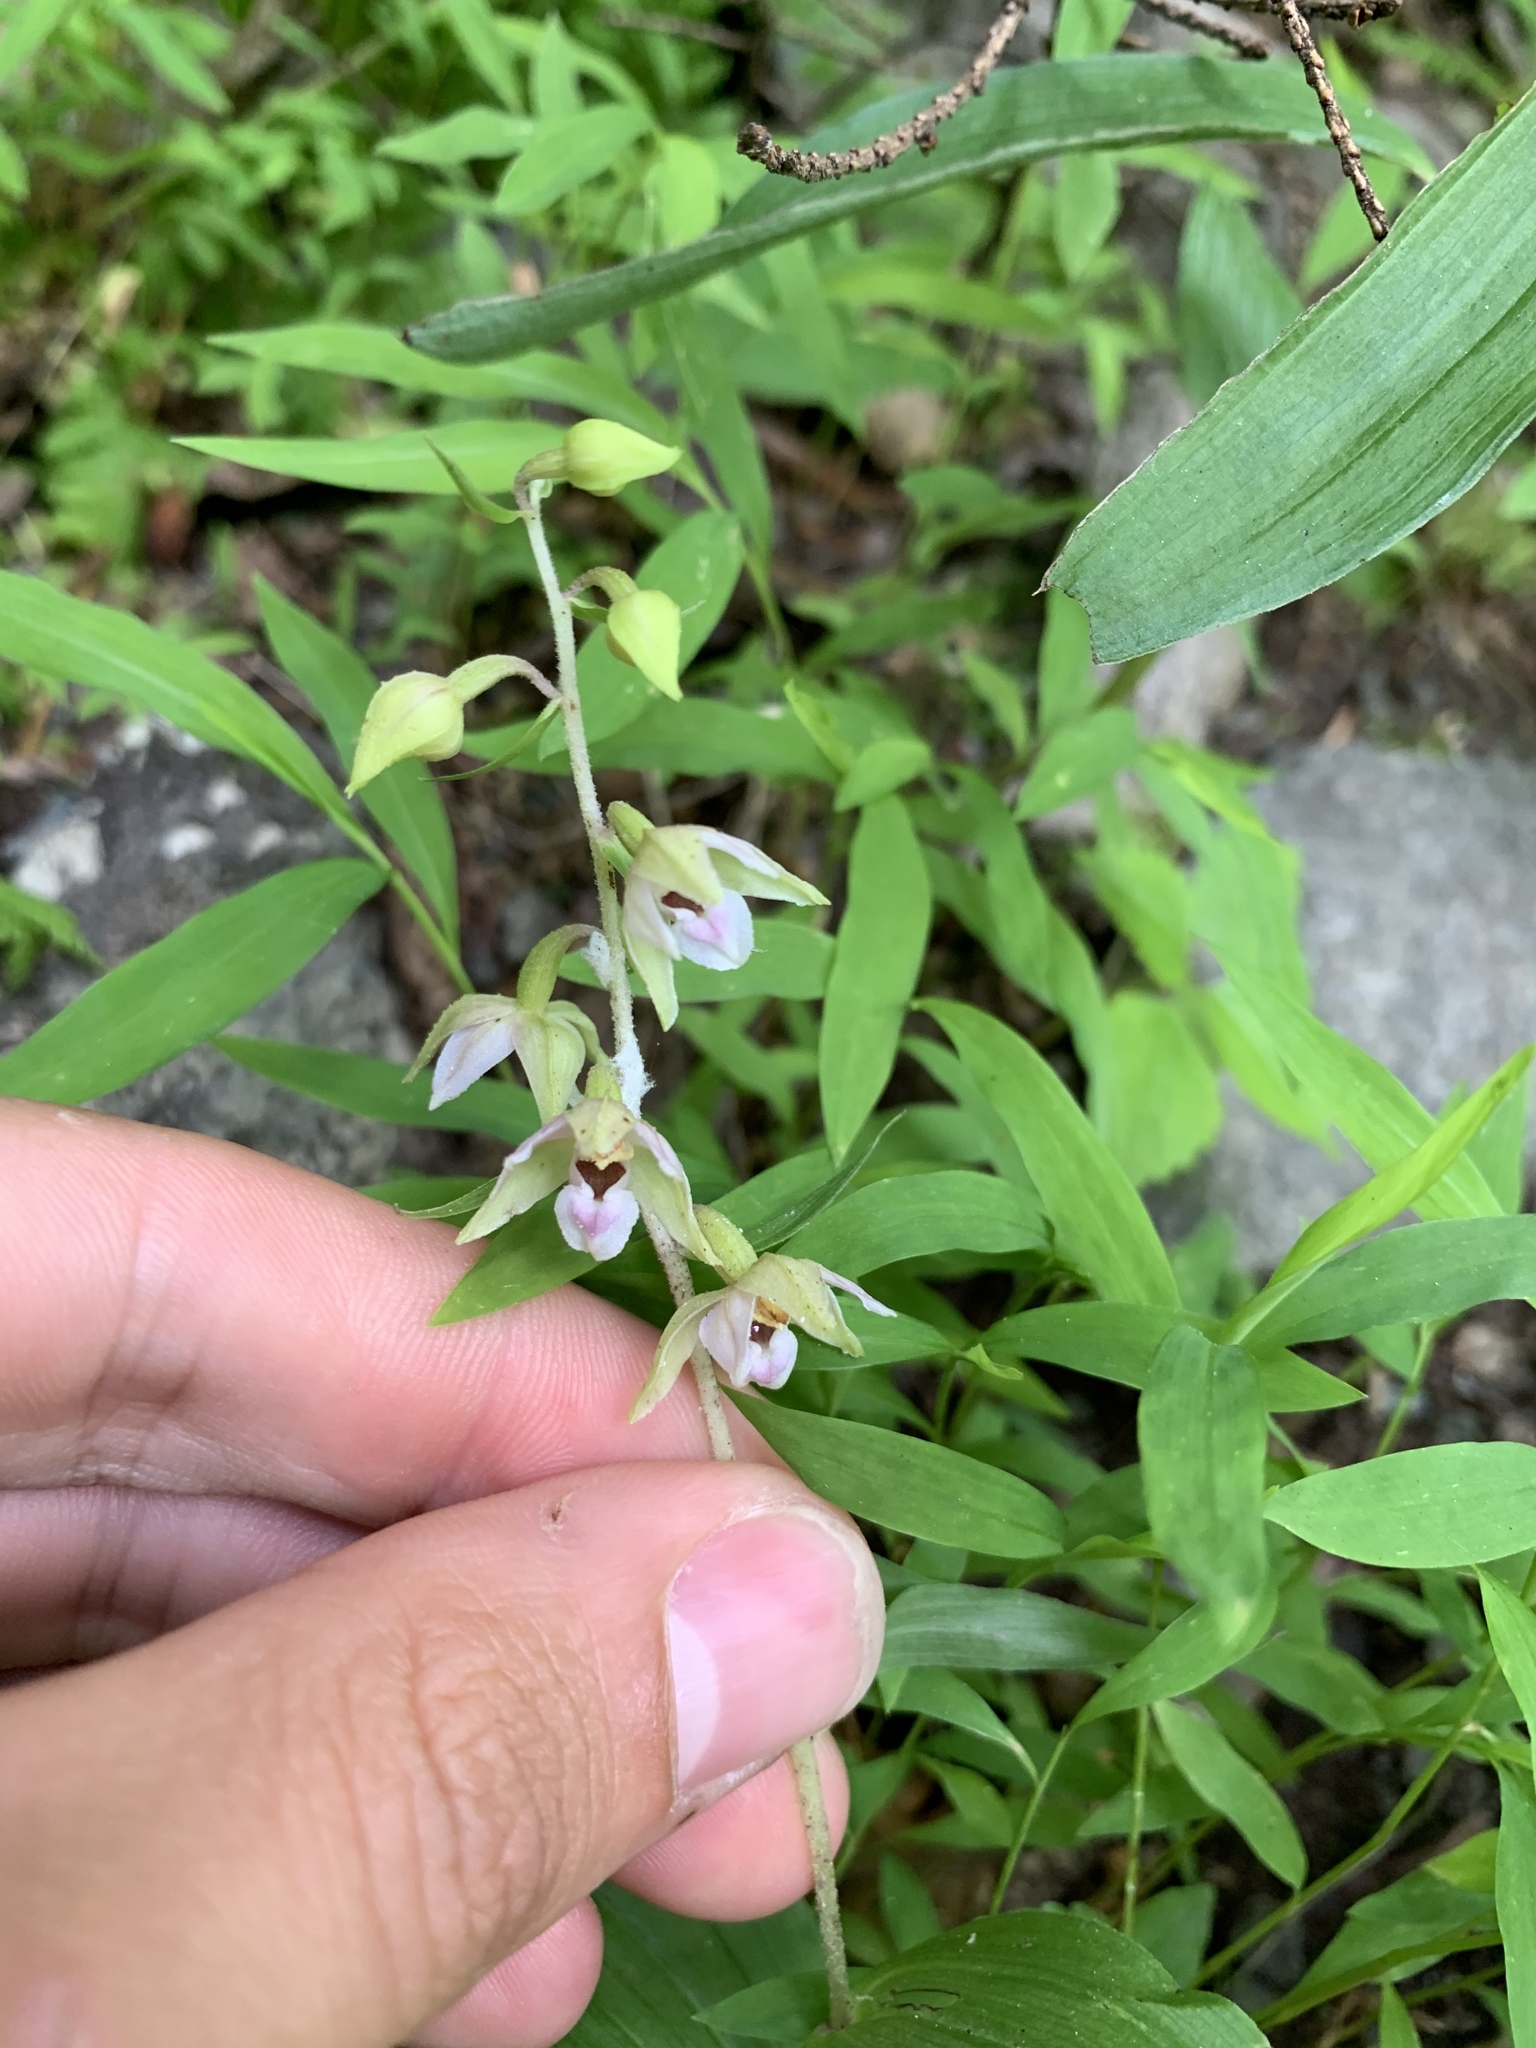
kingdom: Plantae
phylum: Tracheophyta
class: Liliopsida
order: Asparagales
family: Orchidaceae
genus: Epipactis
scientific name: Epipactis helleborine
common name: Broad-leaved helleborine
